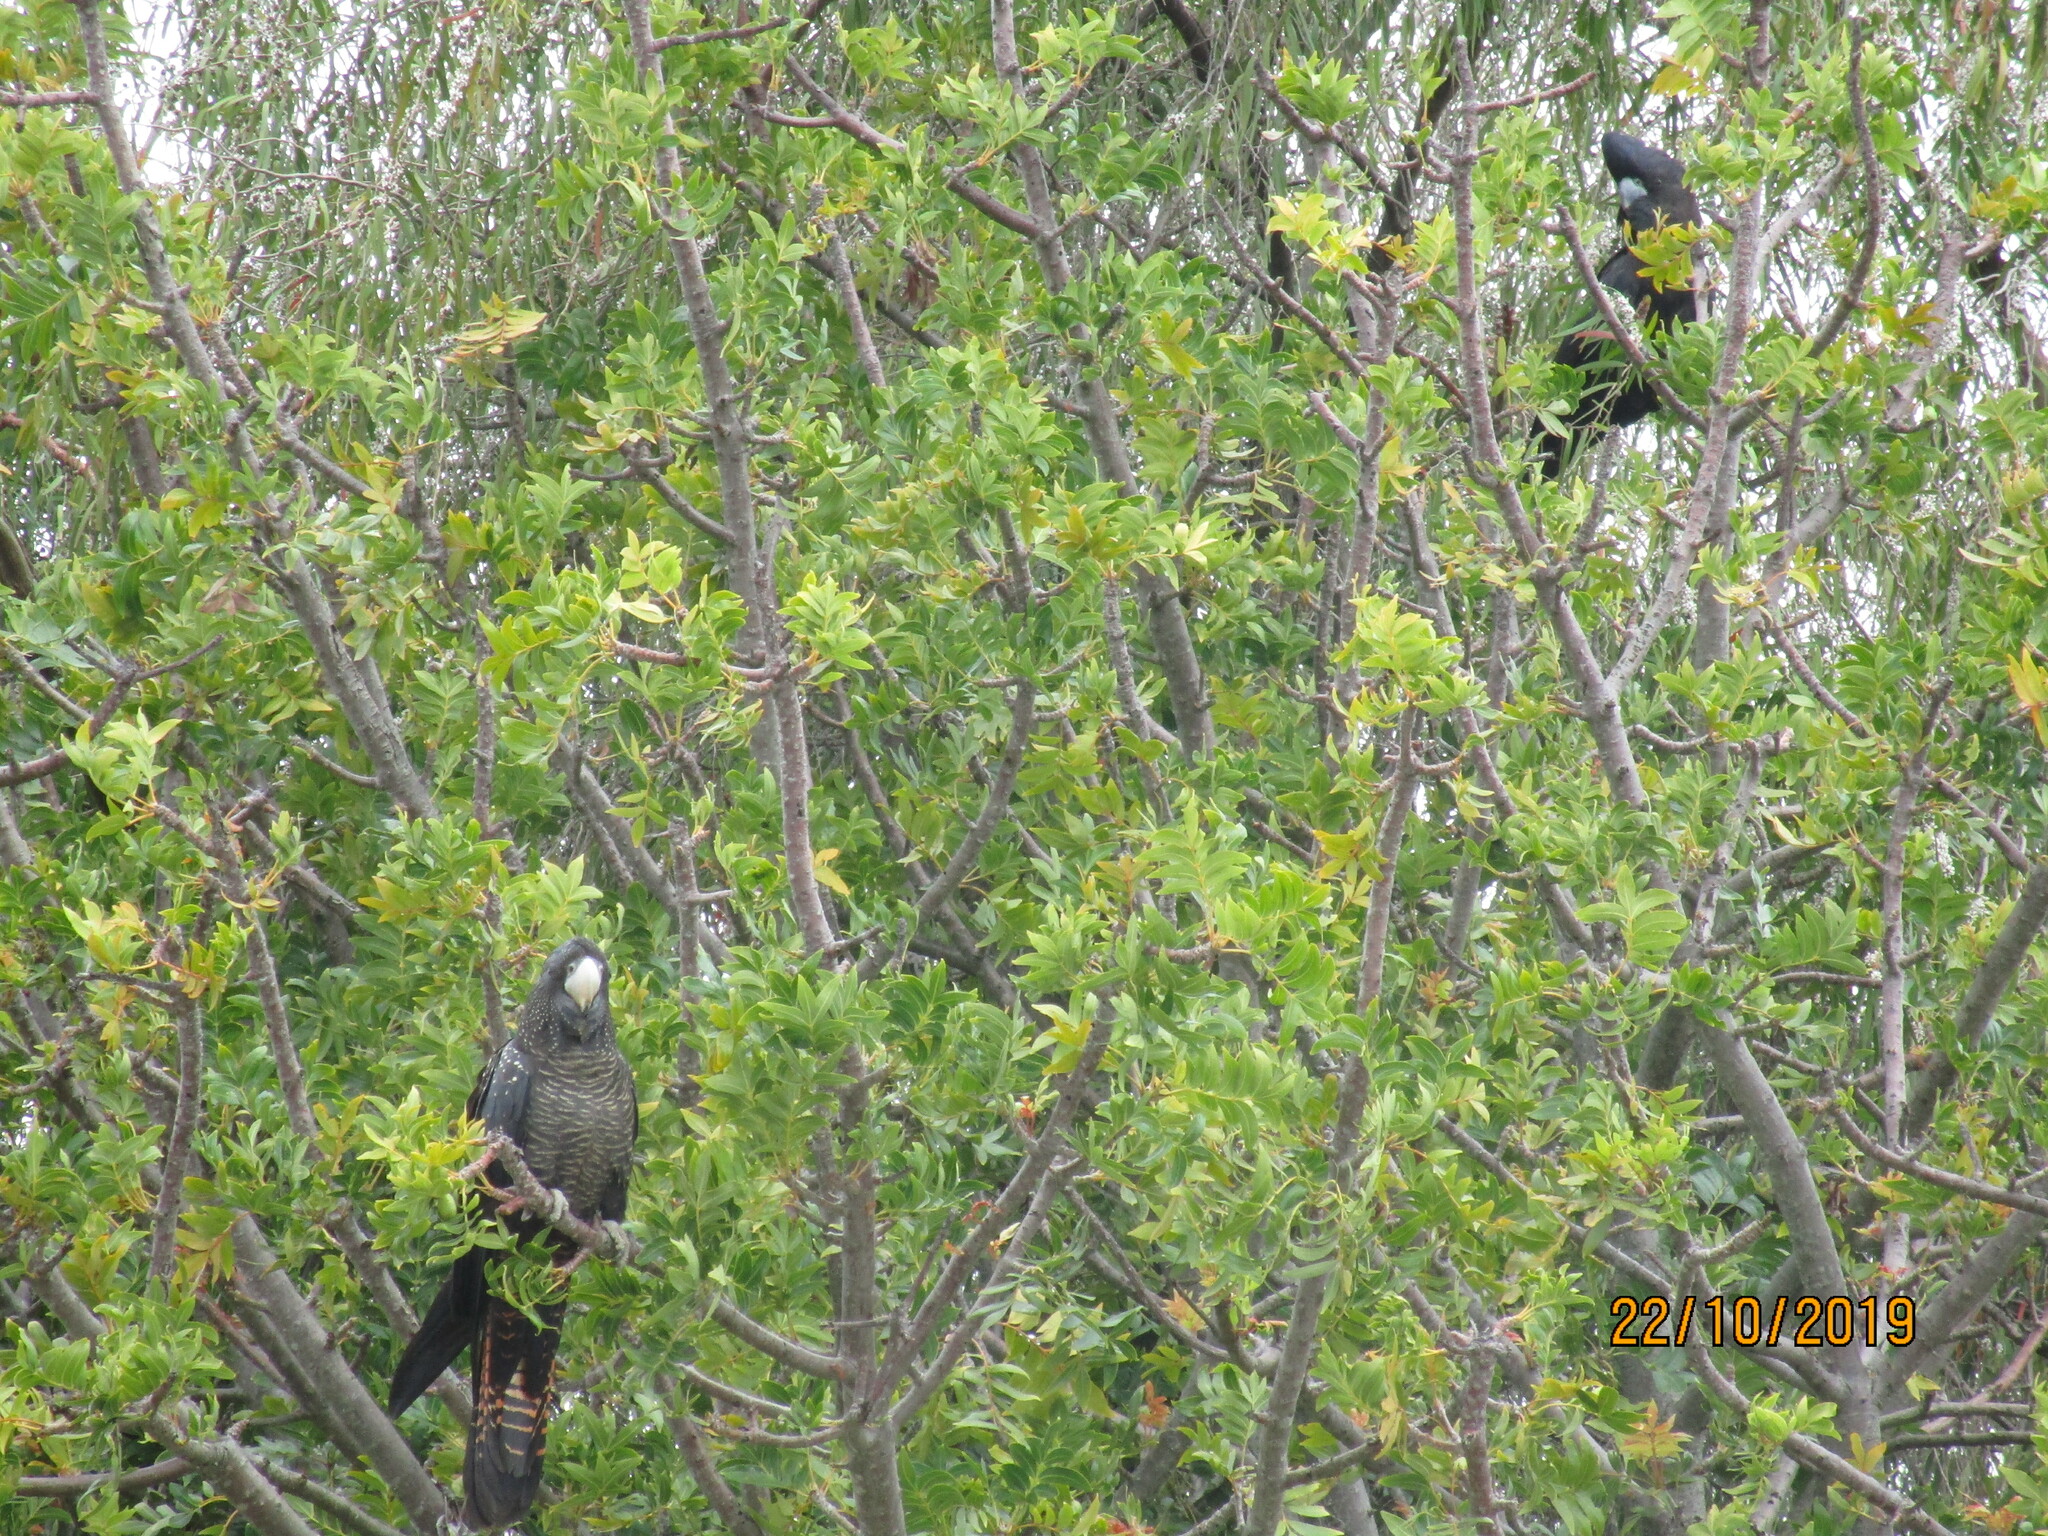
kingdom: Animalia
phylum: Chordata
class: Aves
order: Psittaciformes
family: Psittacidae
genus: Calyptorhynchus
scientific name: Calyptorhynchus banksii
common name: Red-tailed black cockatoo
